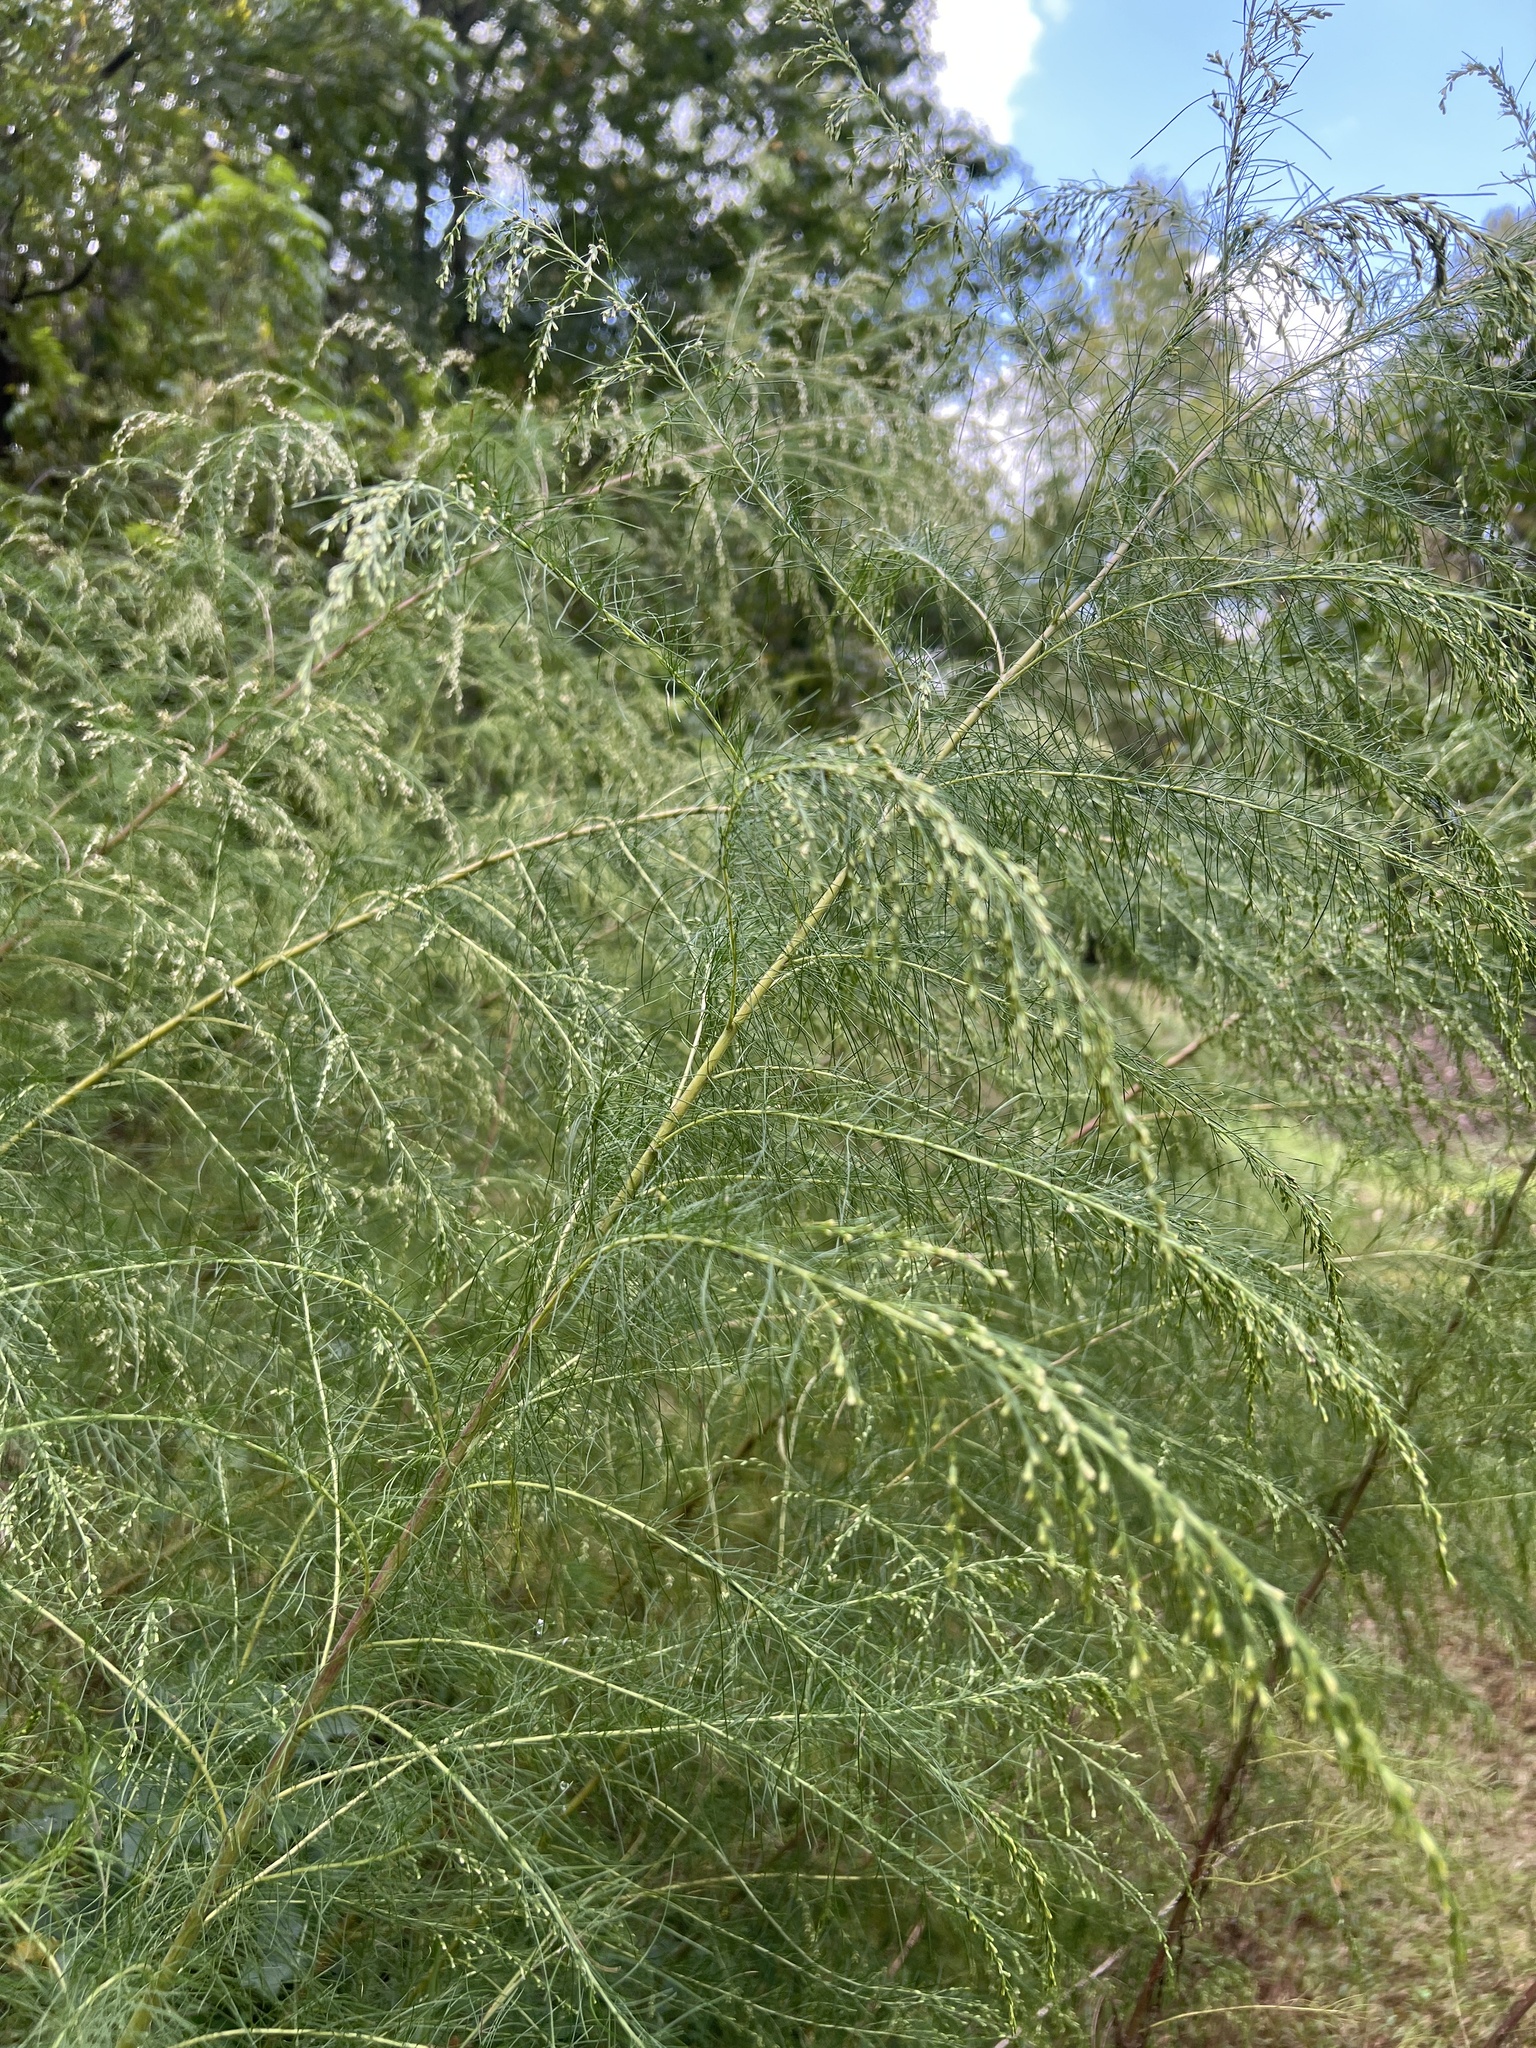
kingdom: Plantae
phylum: Tracheophyta
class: Magnoliopsida
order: Asterales
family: Asteraceae
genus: Eupatorium
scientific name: Eupatorium capillifolium
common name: Dog-fennel
